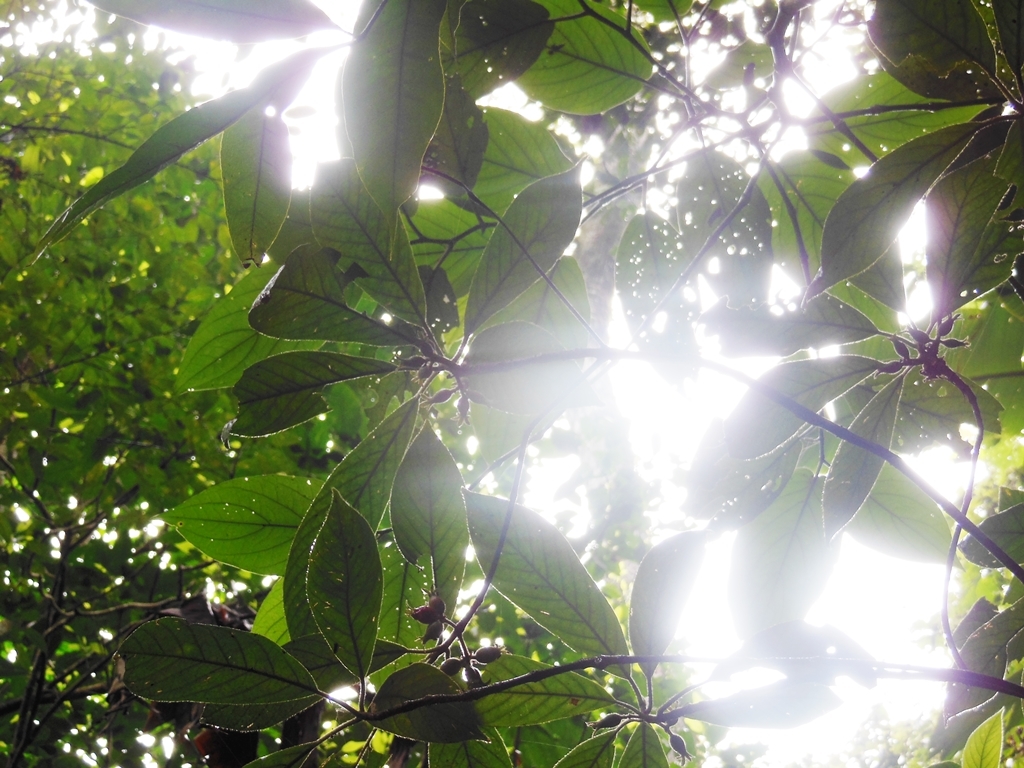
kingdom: Plantae
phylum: Tracheophyta
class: Magnoliopsida
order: Gentianales
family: Rubiaceae
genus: Sommera
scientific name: Sommera arborescens
